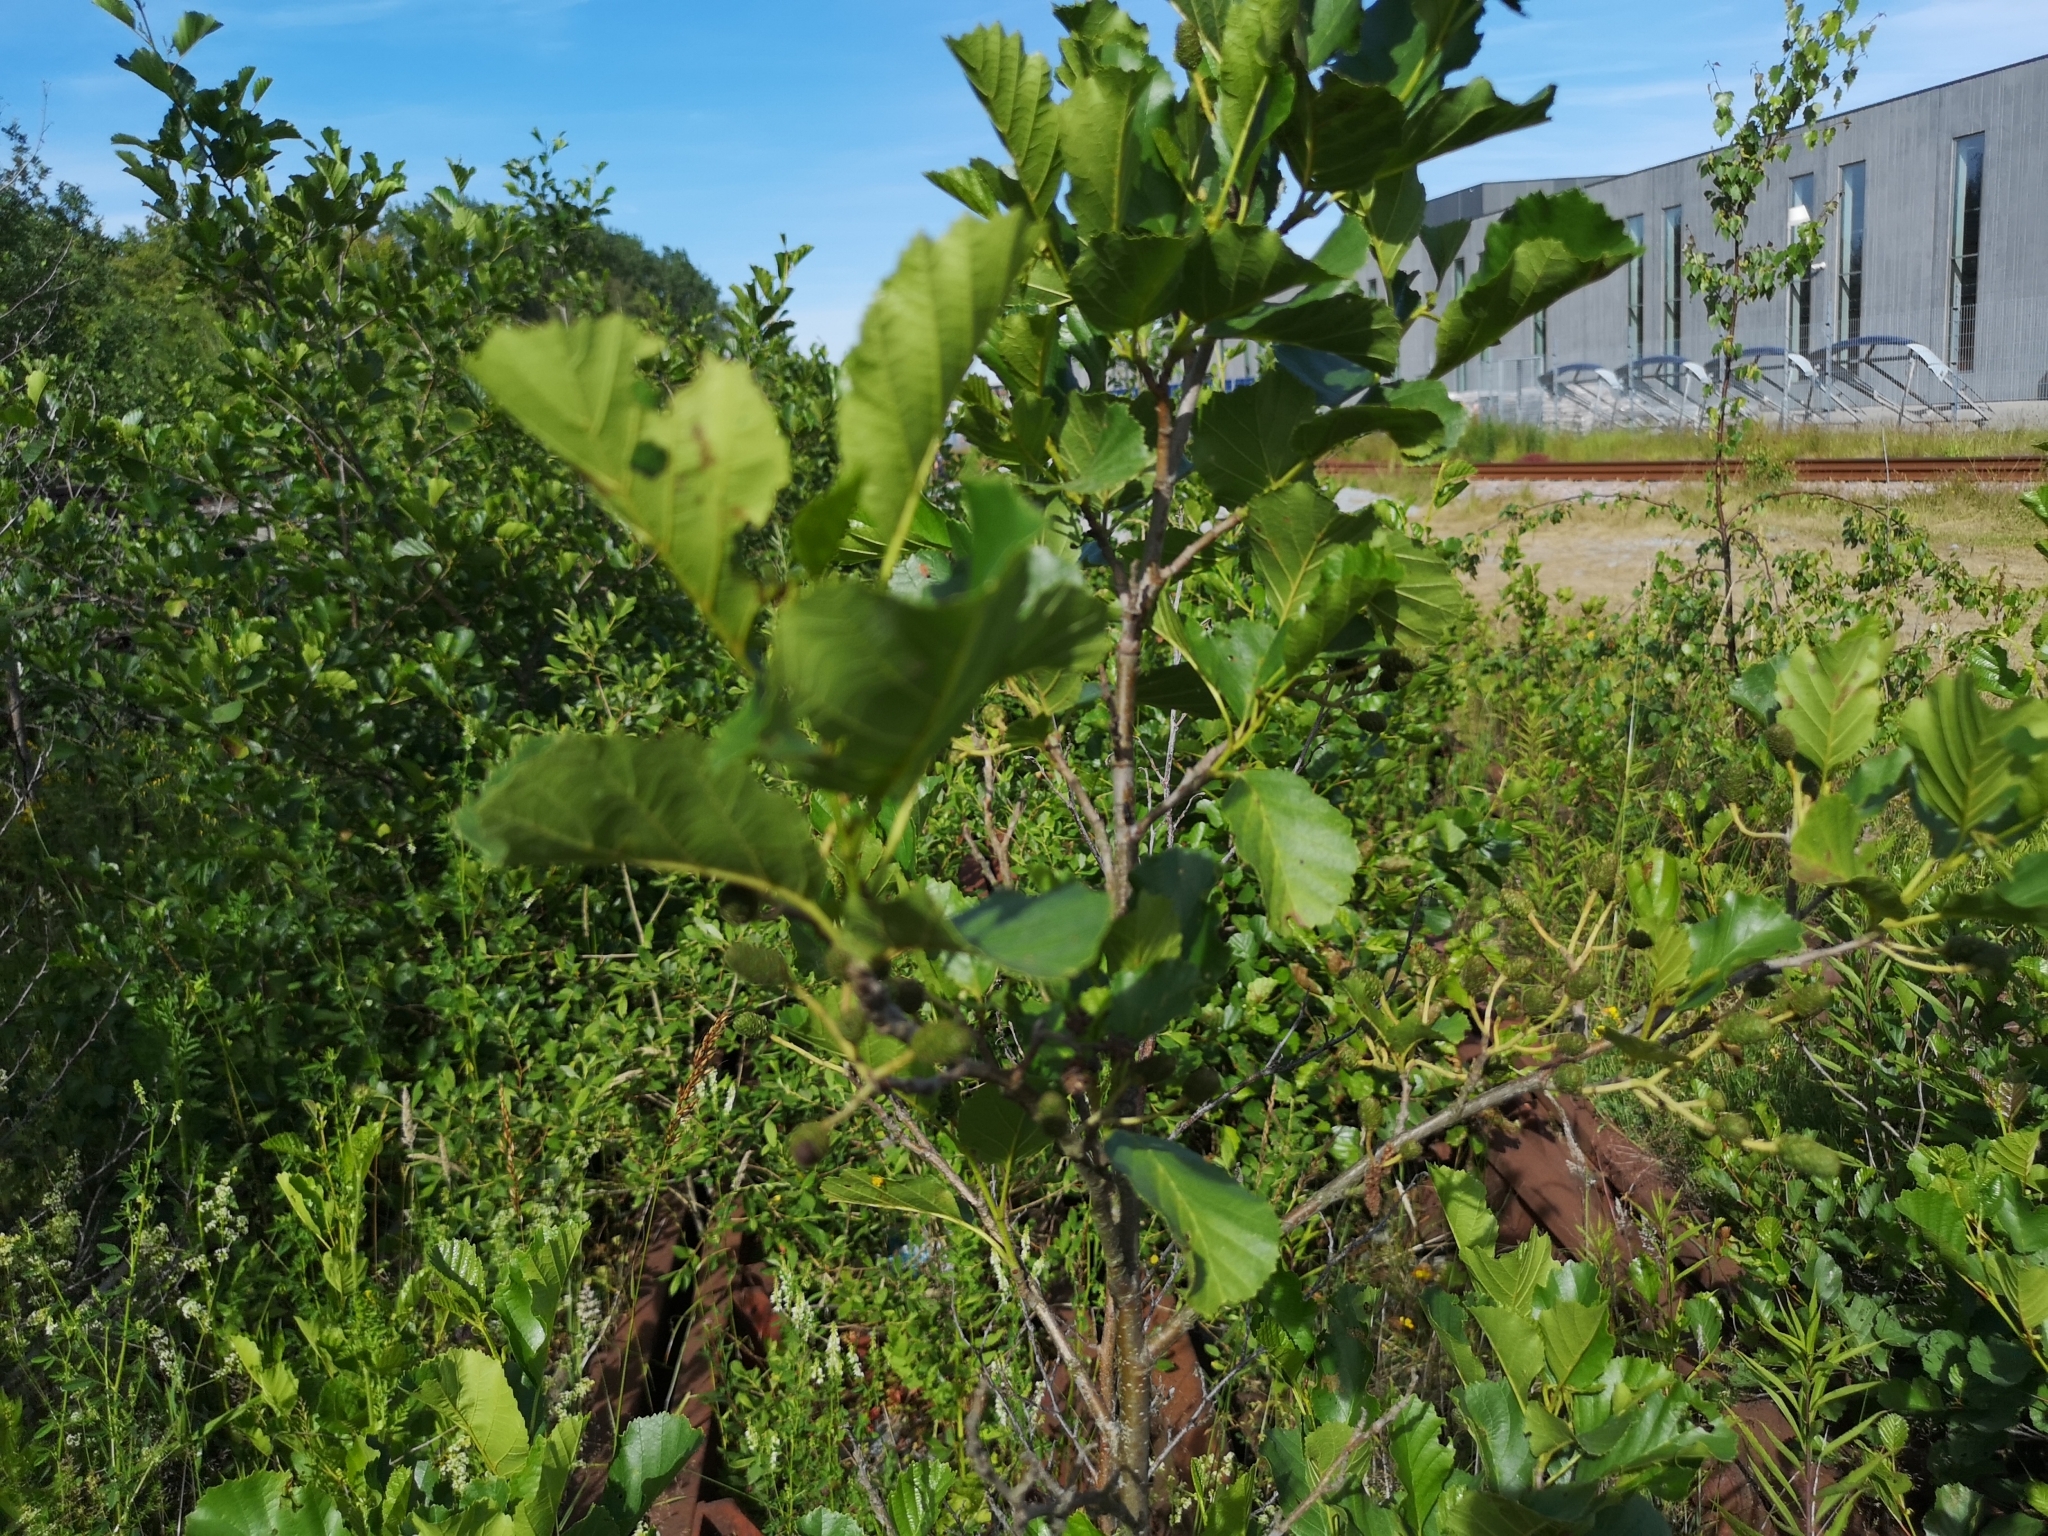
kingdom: Plantae
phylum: Tracheophyta
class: Magnoliopsida
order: Fagales
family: Betulaceae
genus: Alnus
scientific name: Alnus glutinosa
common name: Black alder
